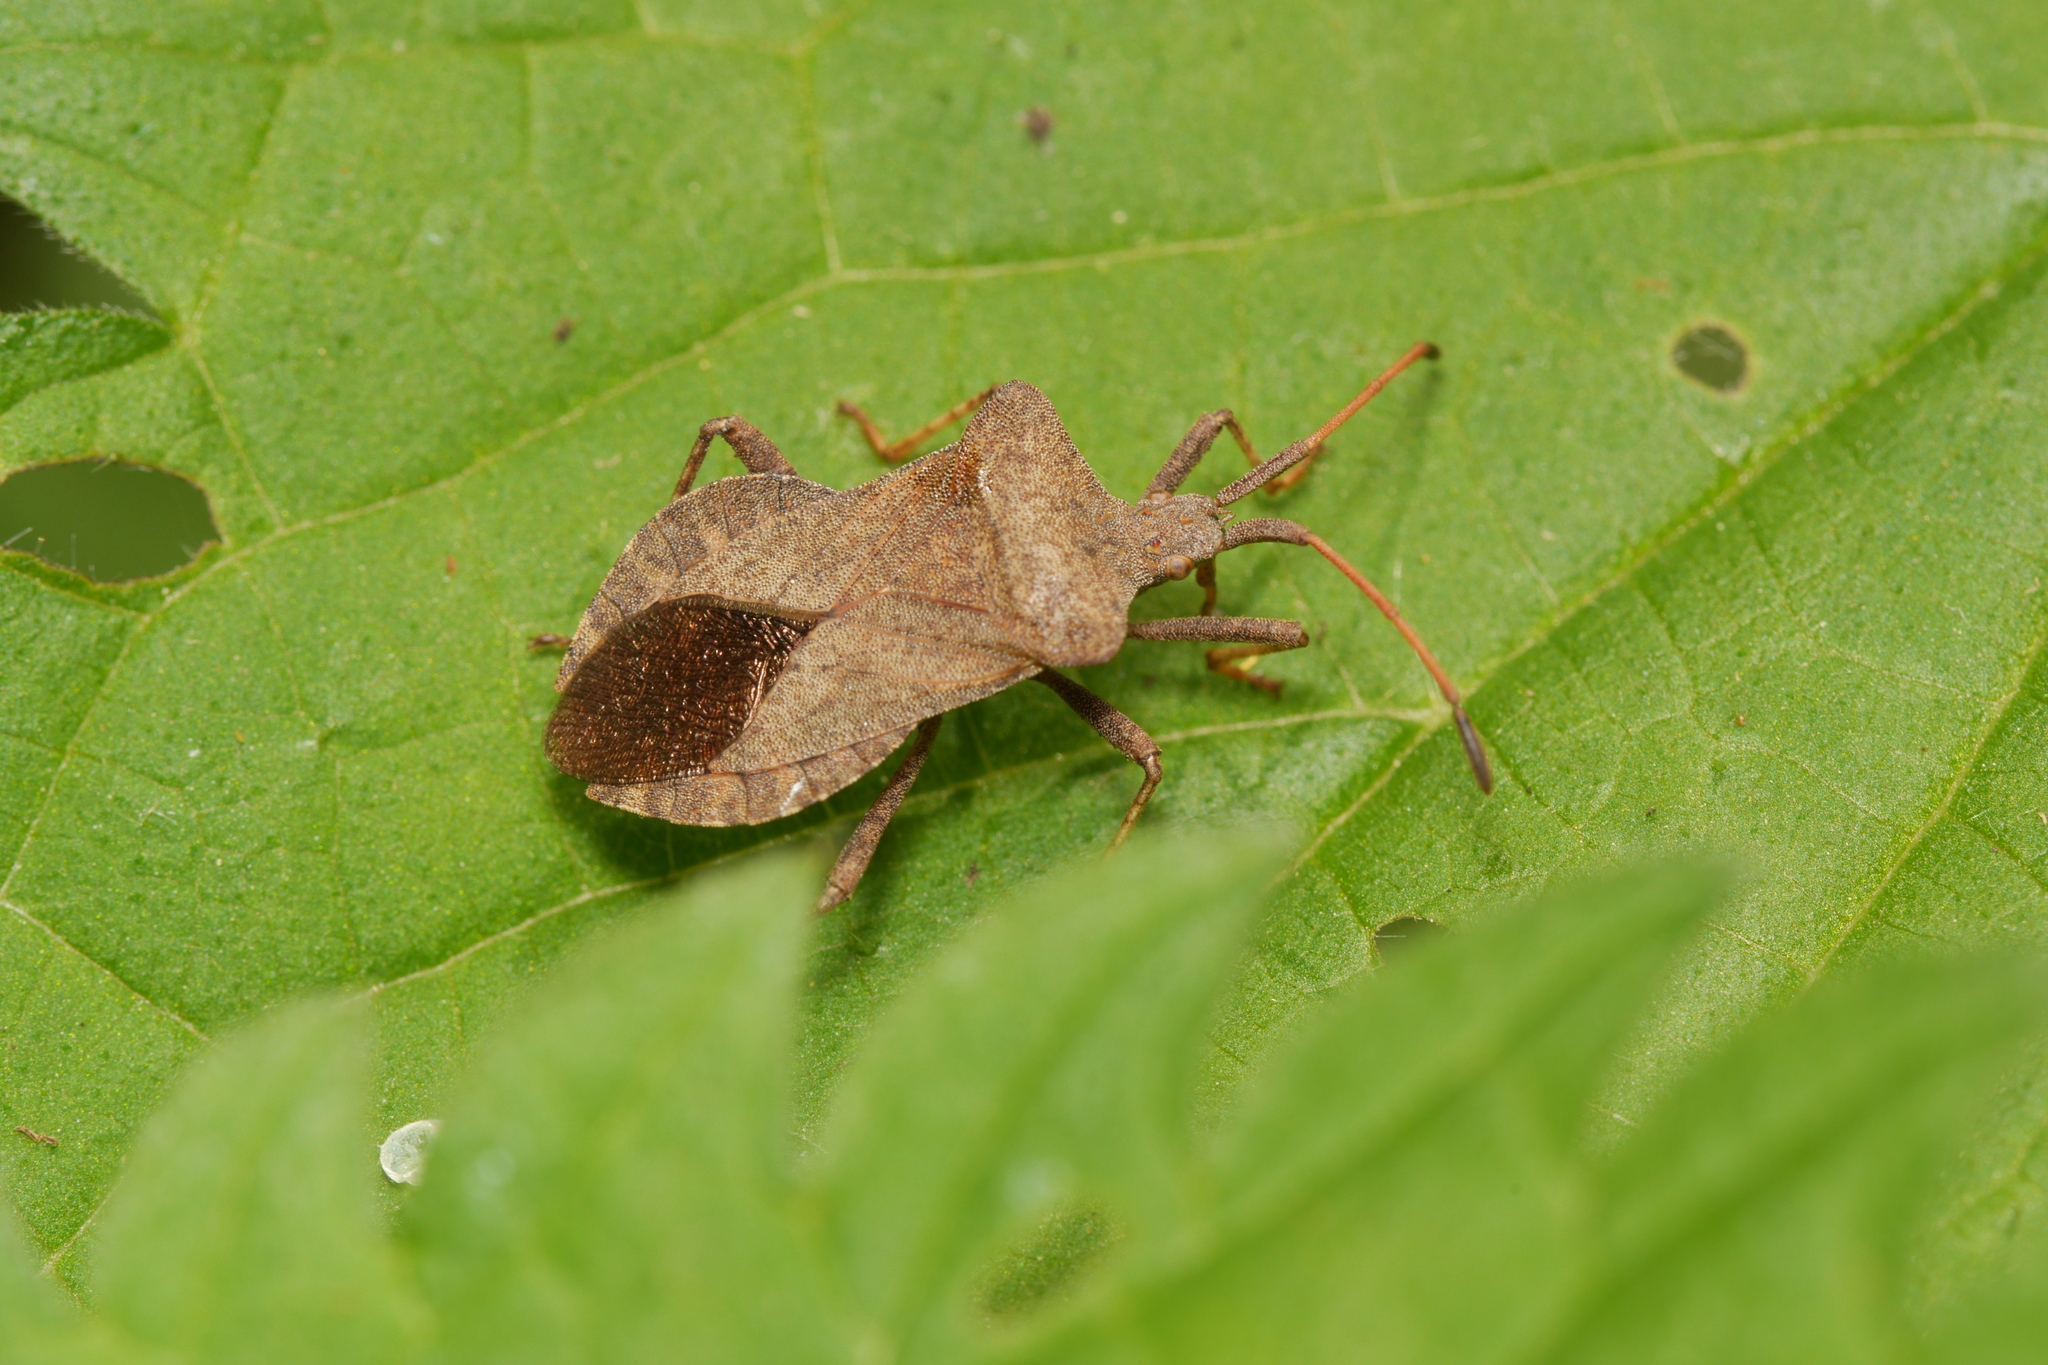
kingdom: Animalia
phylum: Arthropoda
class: Insecta
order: Hemiptera
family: Coreidae
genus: Coreus
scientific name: Coreus marginatus
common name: Dock bug
